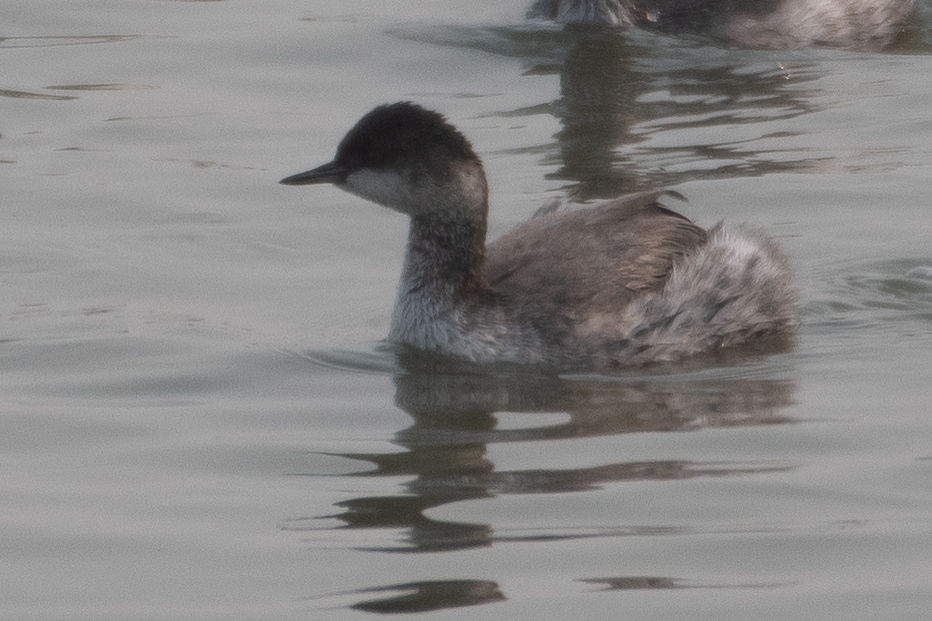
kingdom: Animalia
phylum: Chordata
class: Aves
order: Podicipediformes
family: Podicipedidae
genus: Podiceps
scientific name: Podiceps nigricollis
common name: Black-necked grebe
